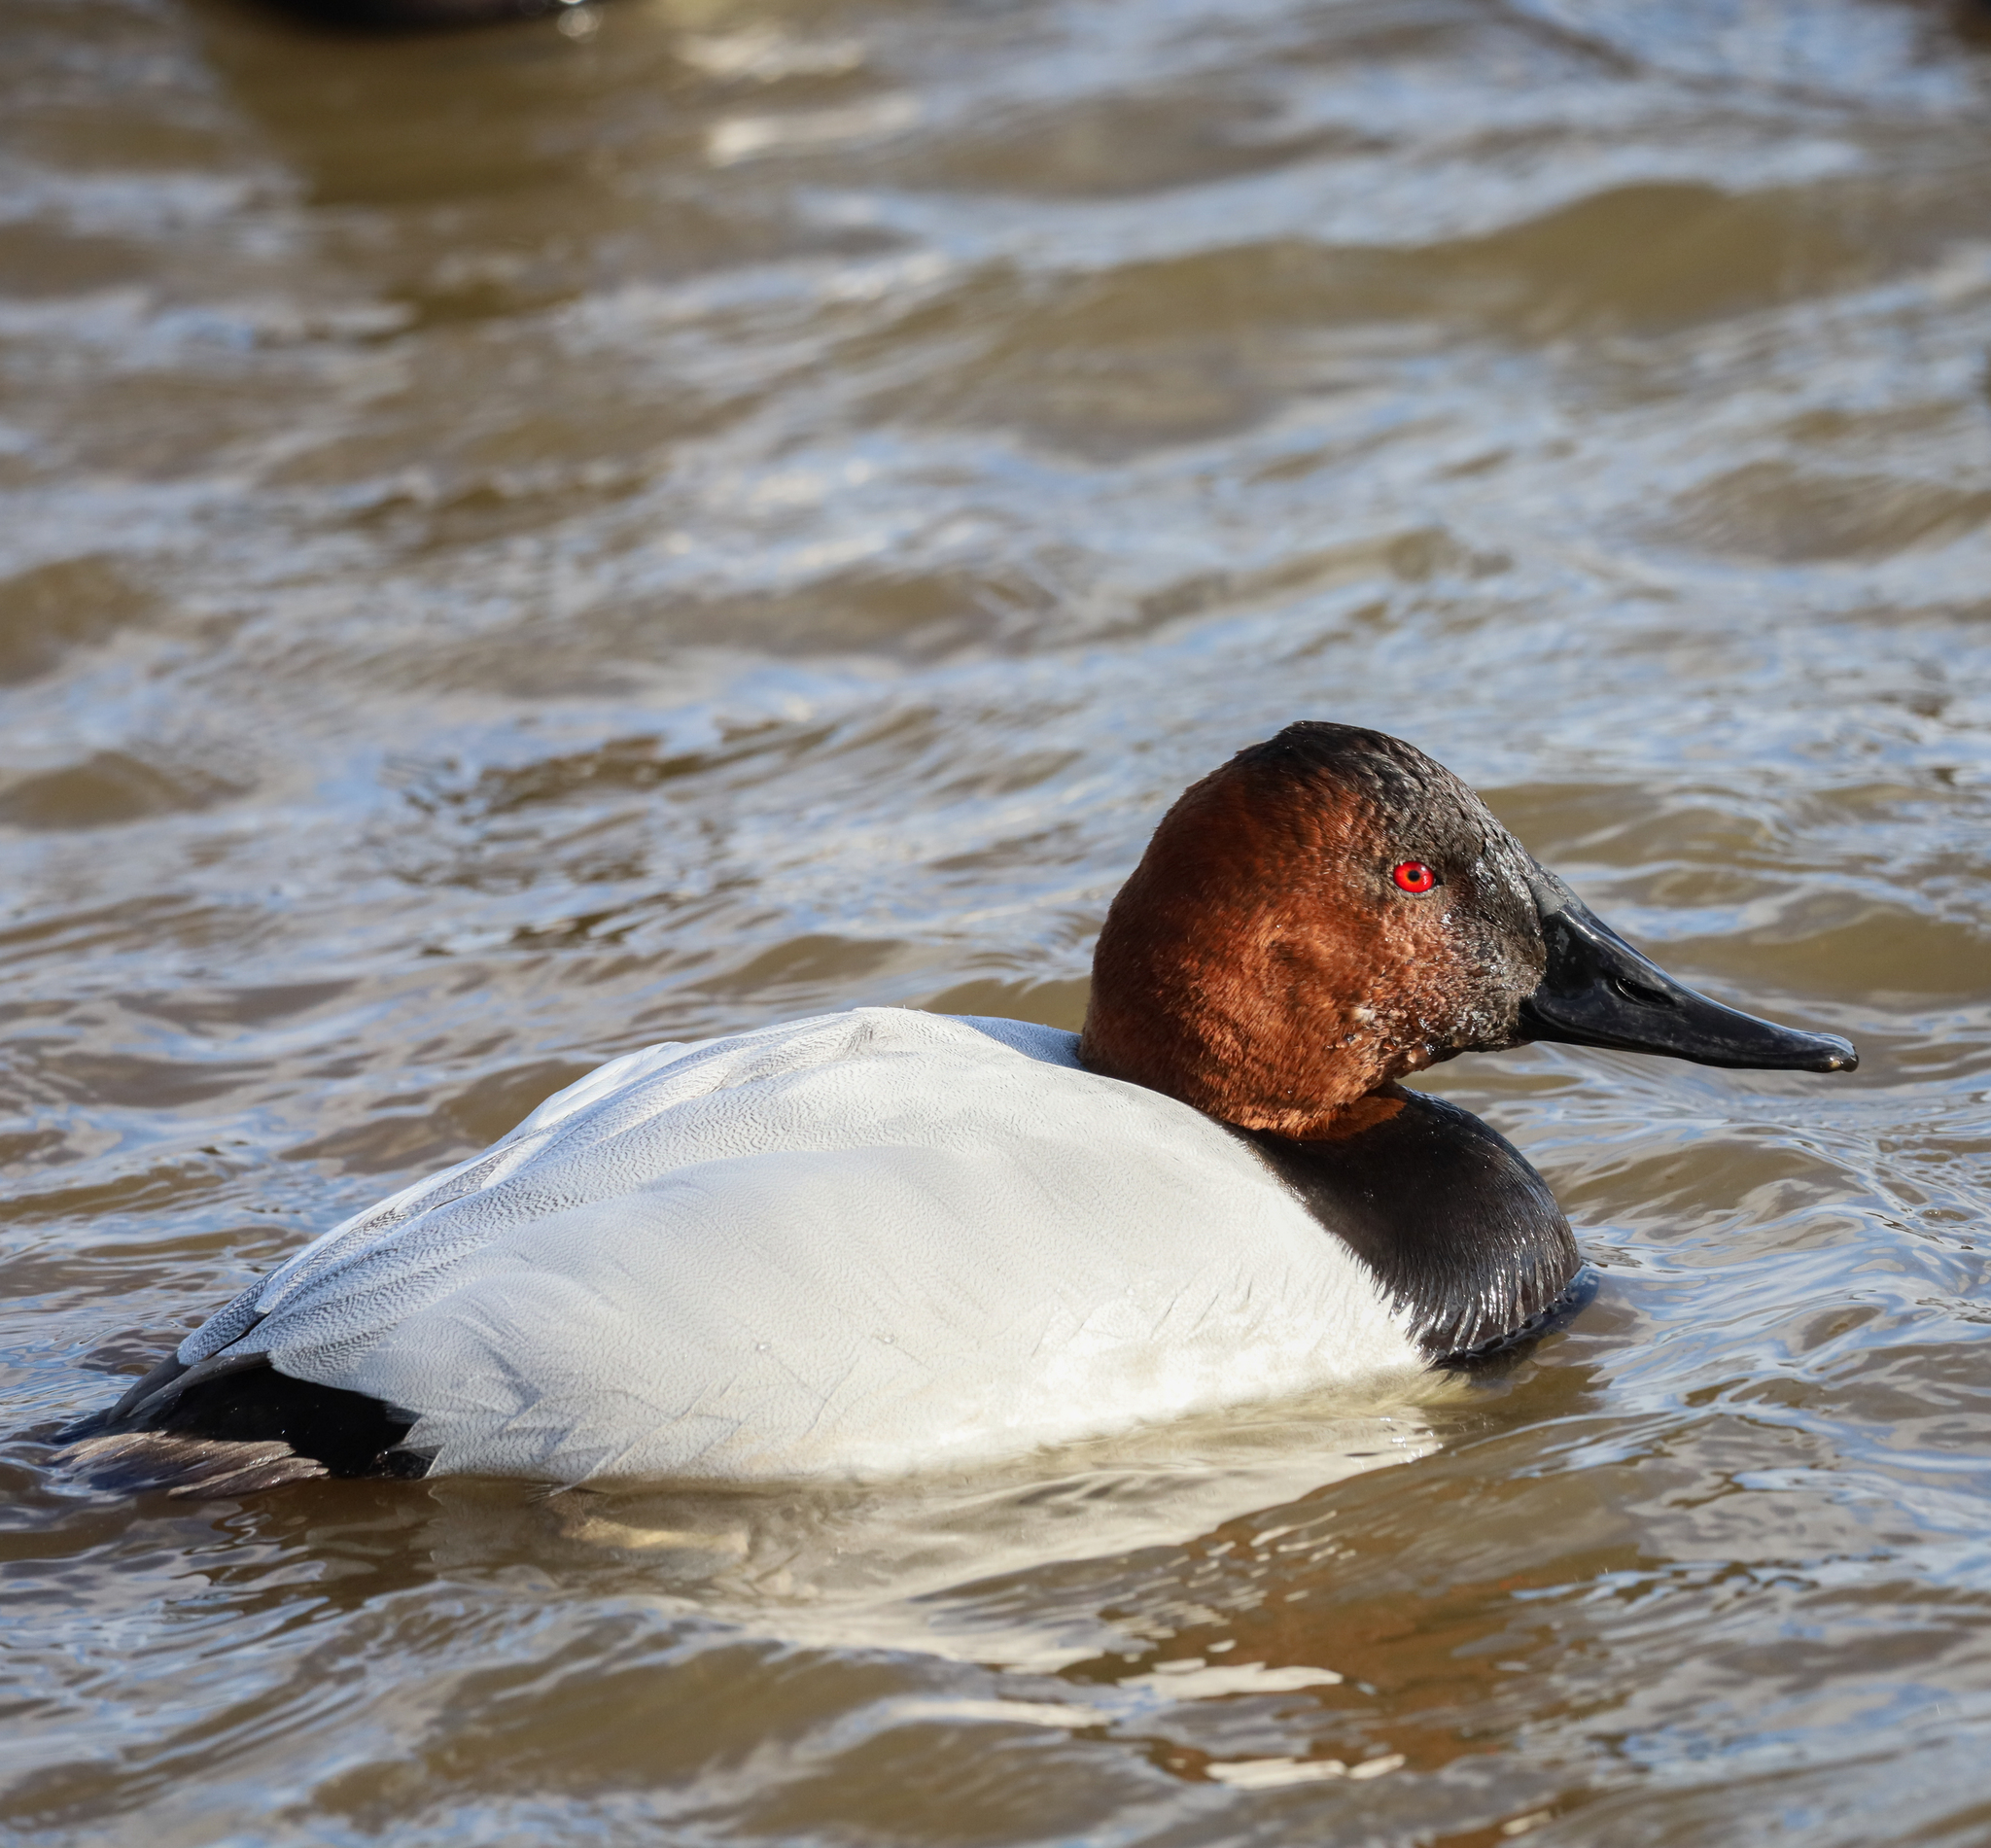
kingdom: Animalia
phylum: Chordata
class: Aves
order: Anseriformes
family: Anatidae
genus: Aythya
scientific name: Aythya valisineria
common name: Canvasback
